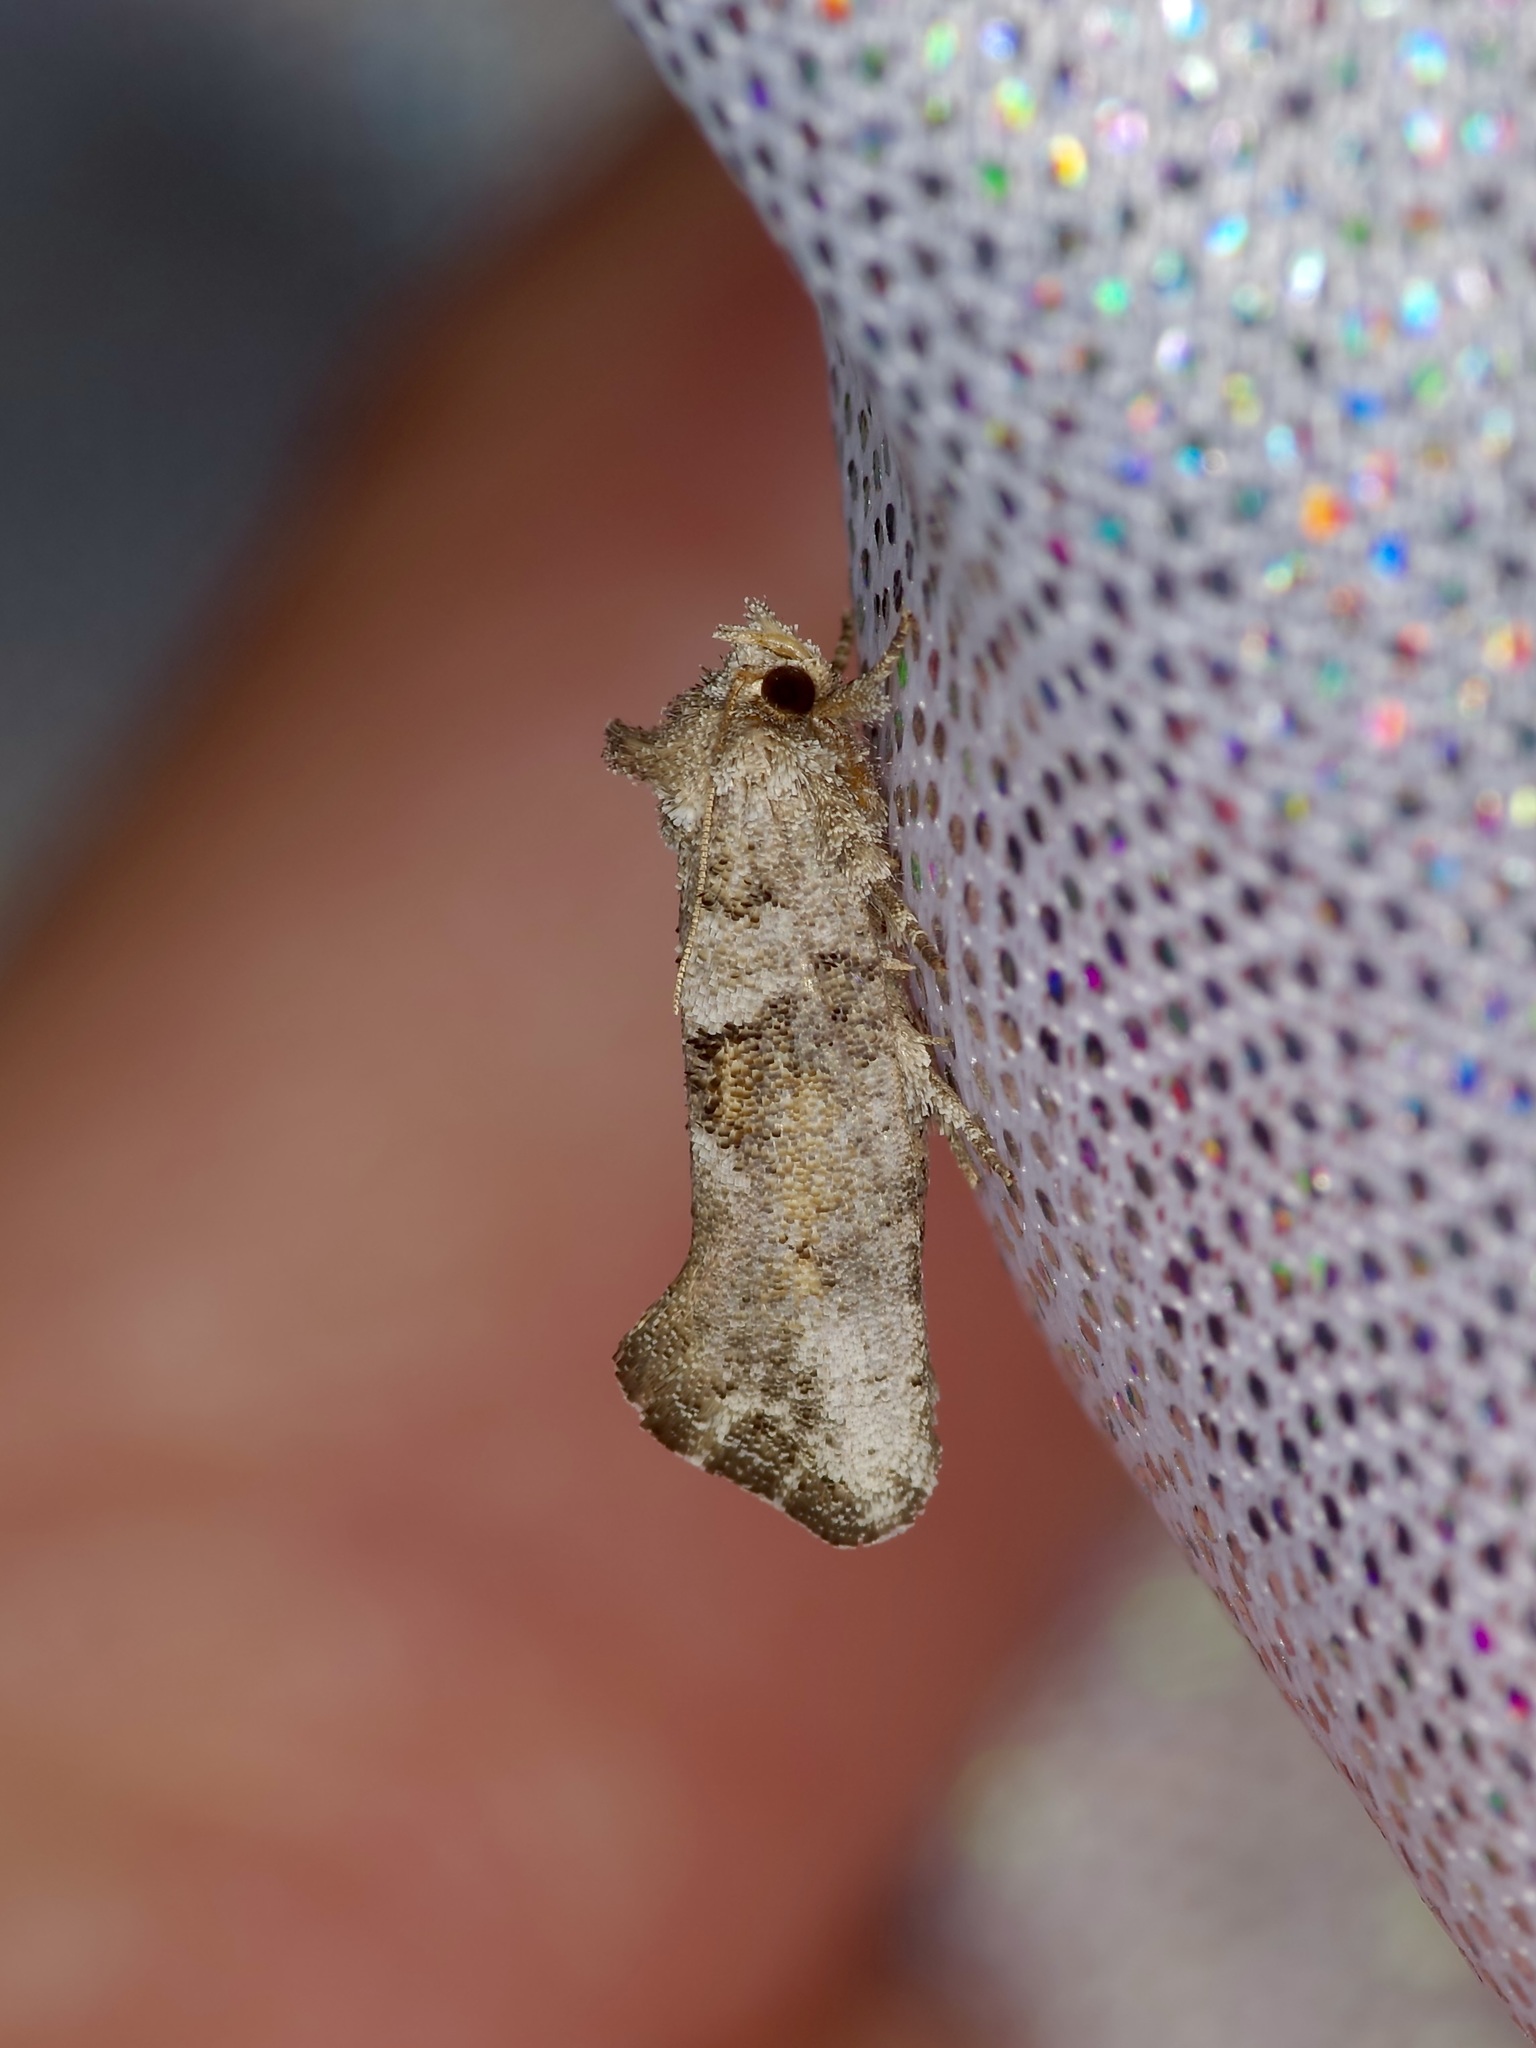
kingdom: Animalia
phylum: Arthropoda
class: Insecta
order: Lepidoptera
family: Tineidae
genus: Acrolophus
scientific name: Acrolophus piger
